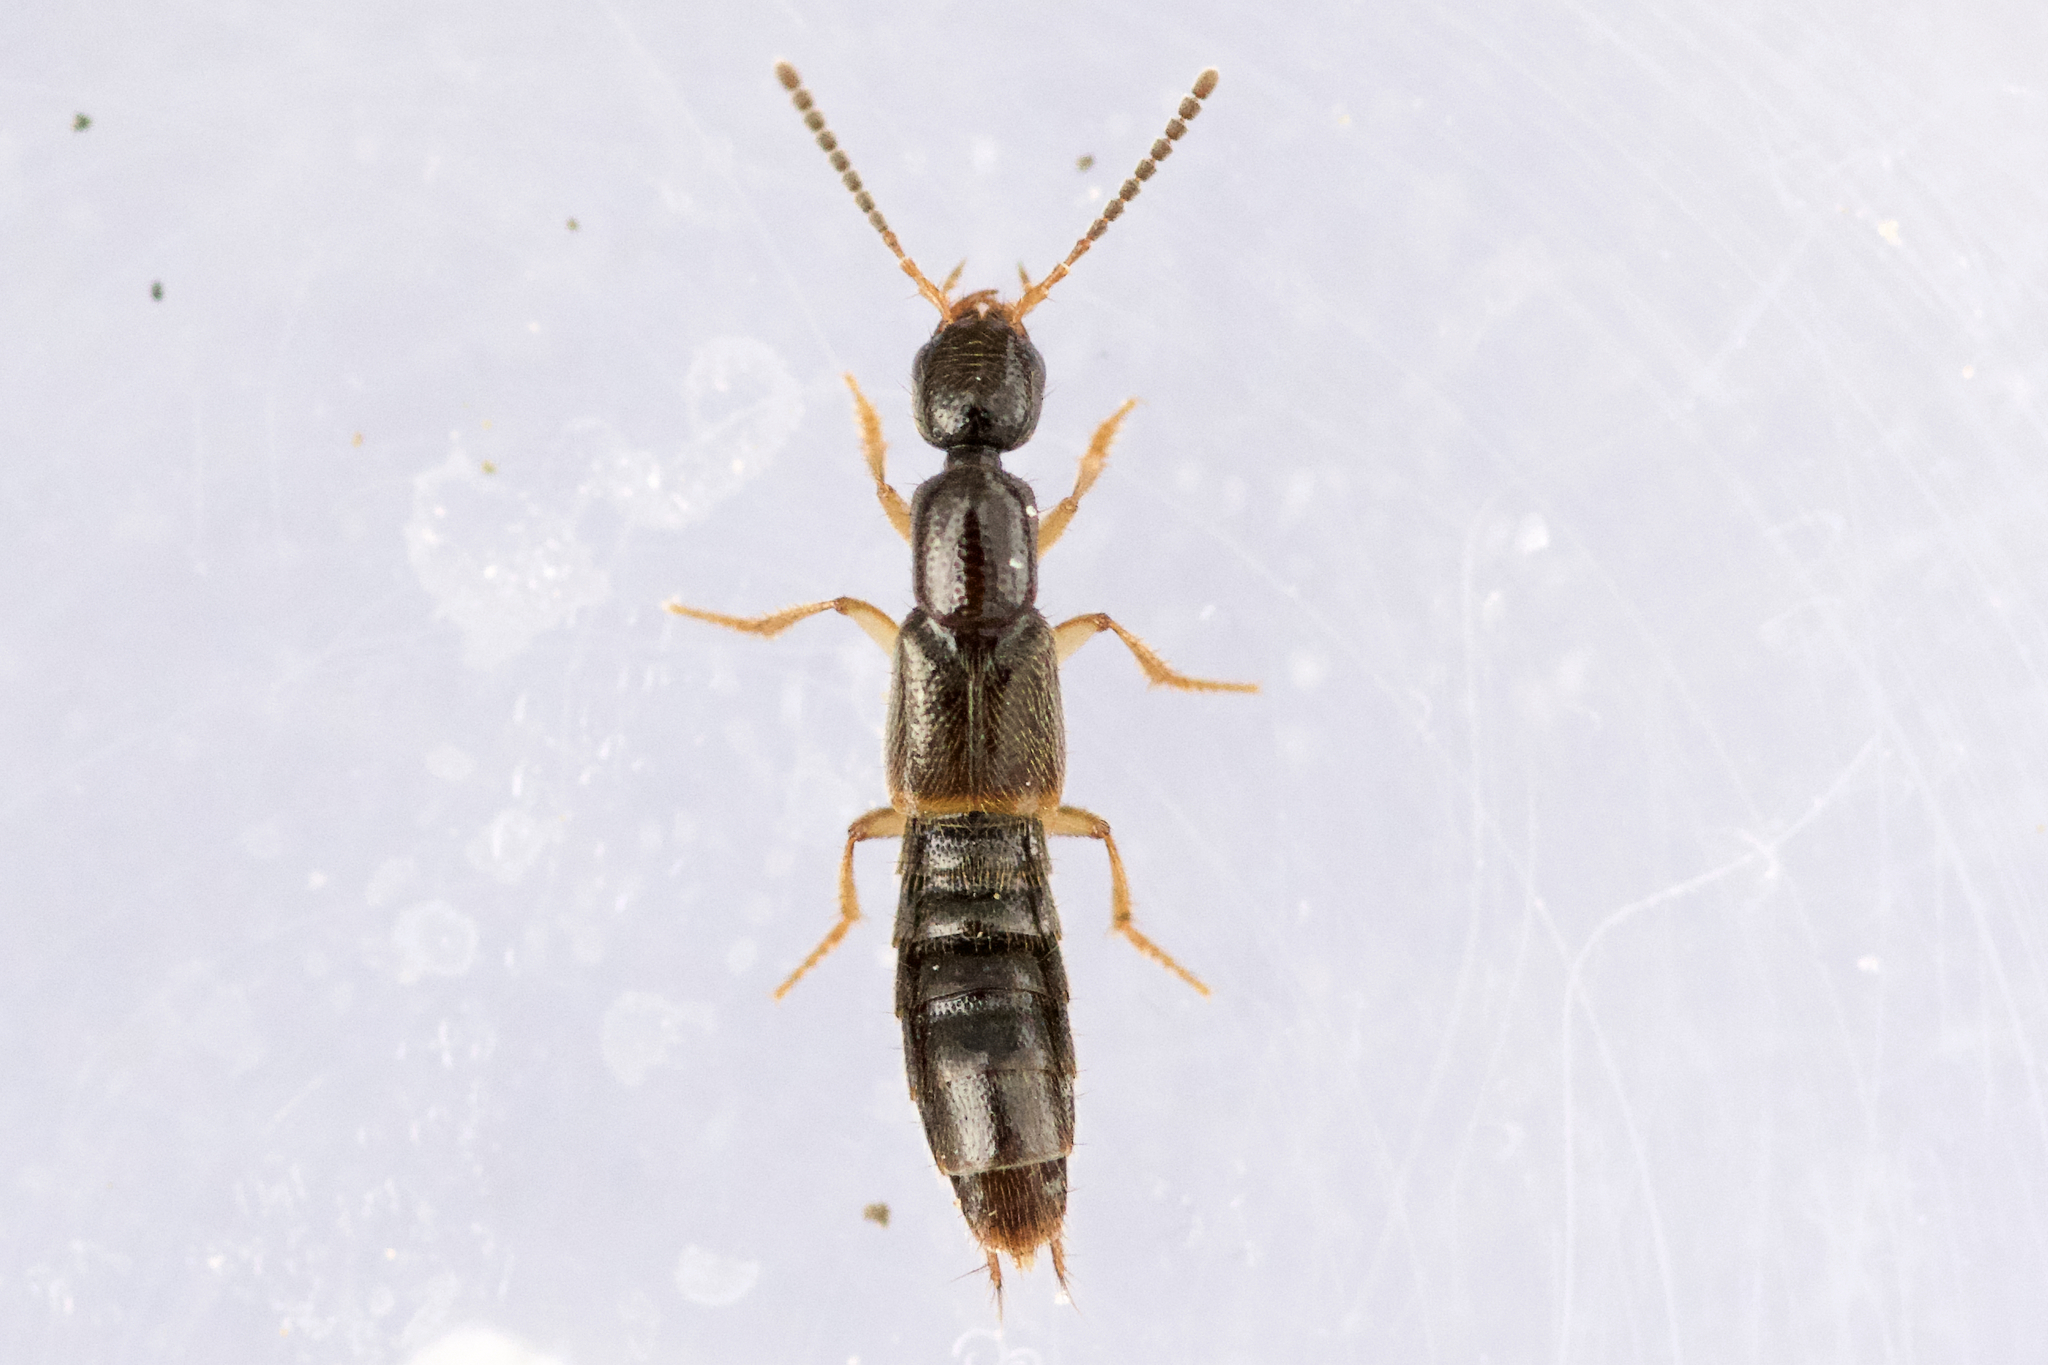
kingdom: Animalia
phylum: Arthropoda
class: Insecta
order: Coleoptera
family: Staphylinidae
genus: Neobisnius
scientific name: Neobisnius sobrinus
